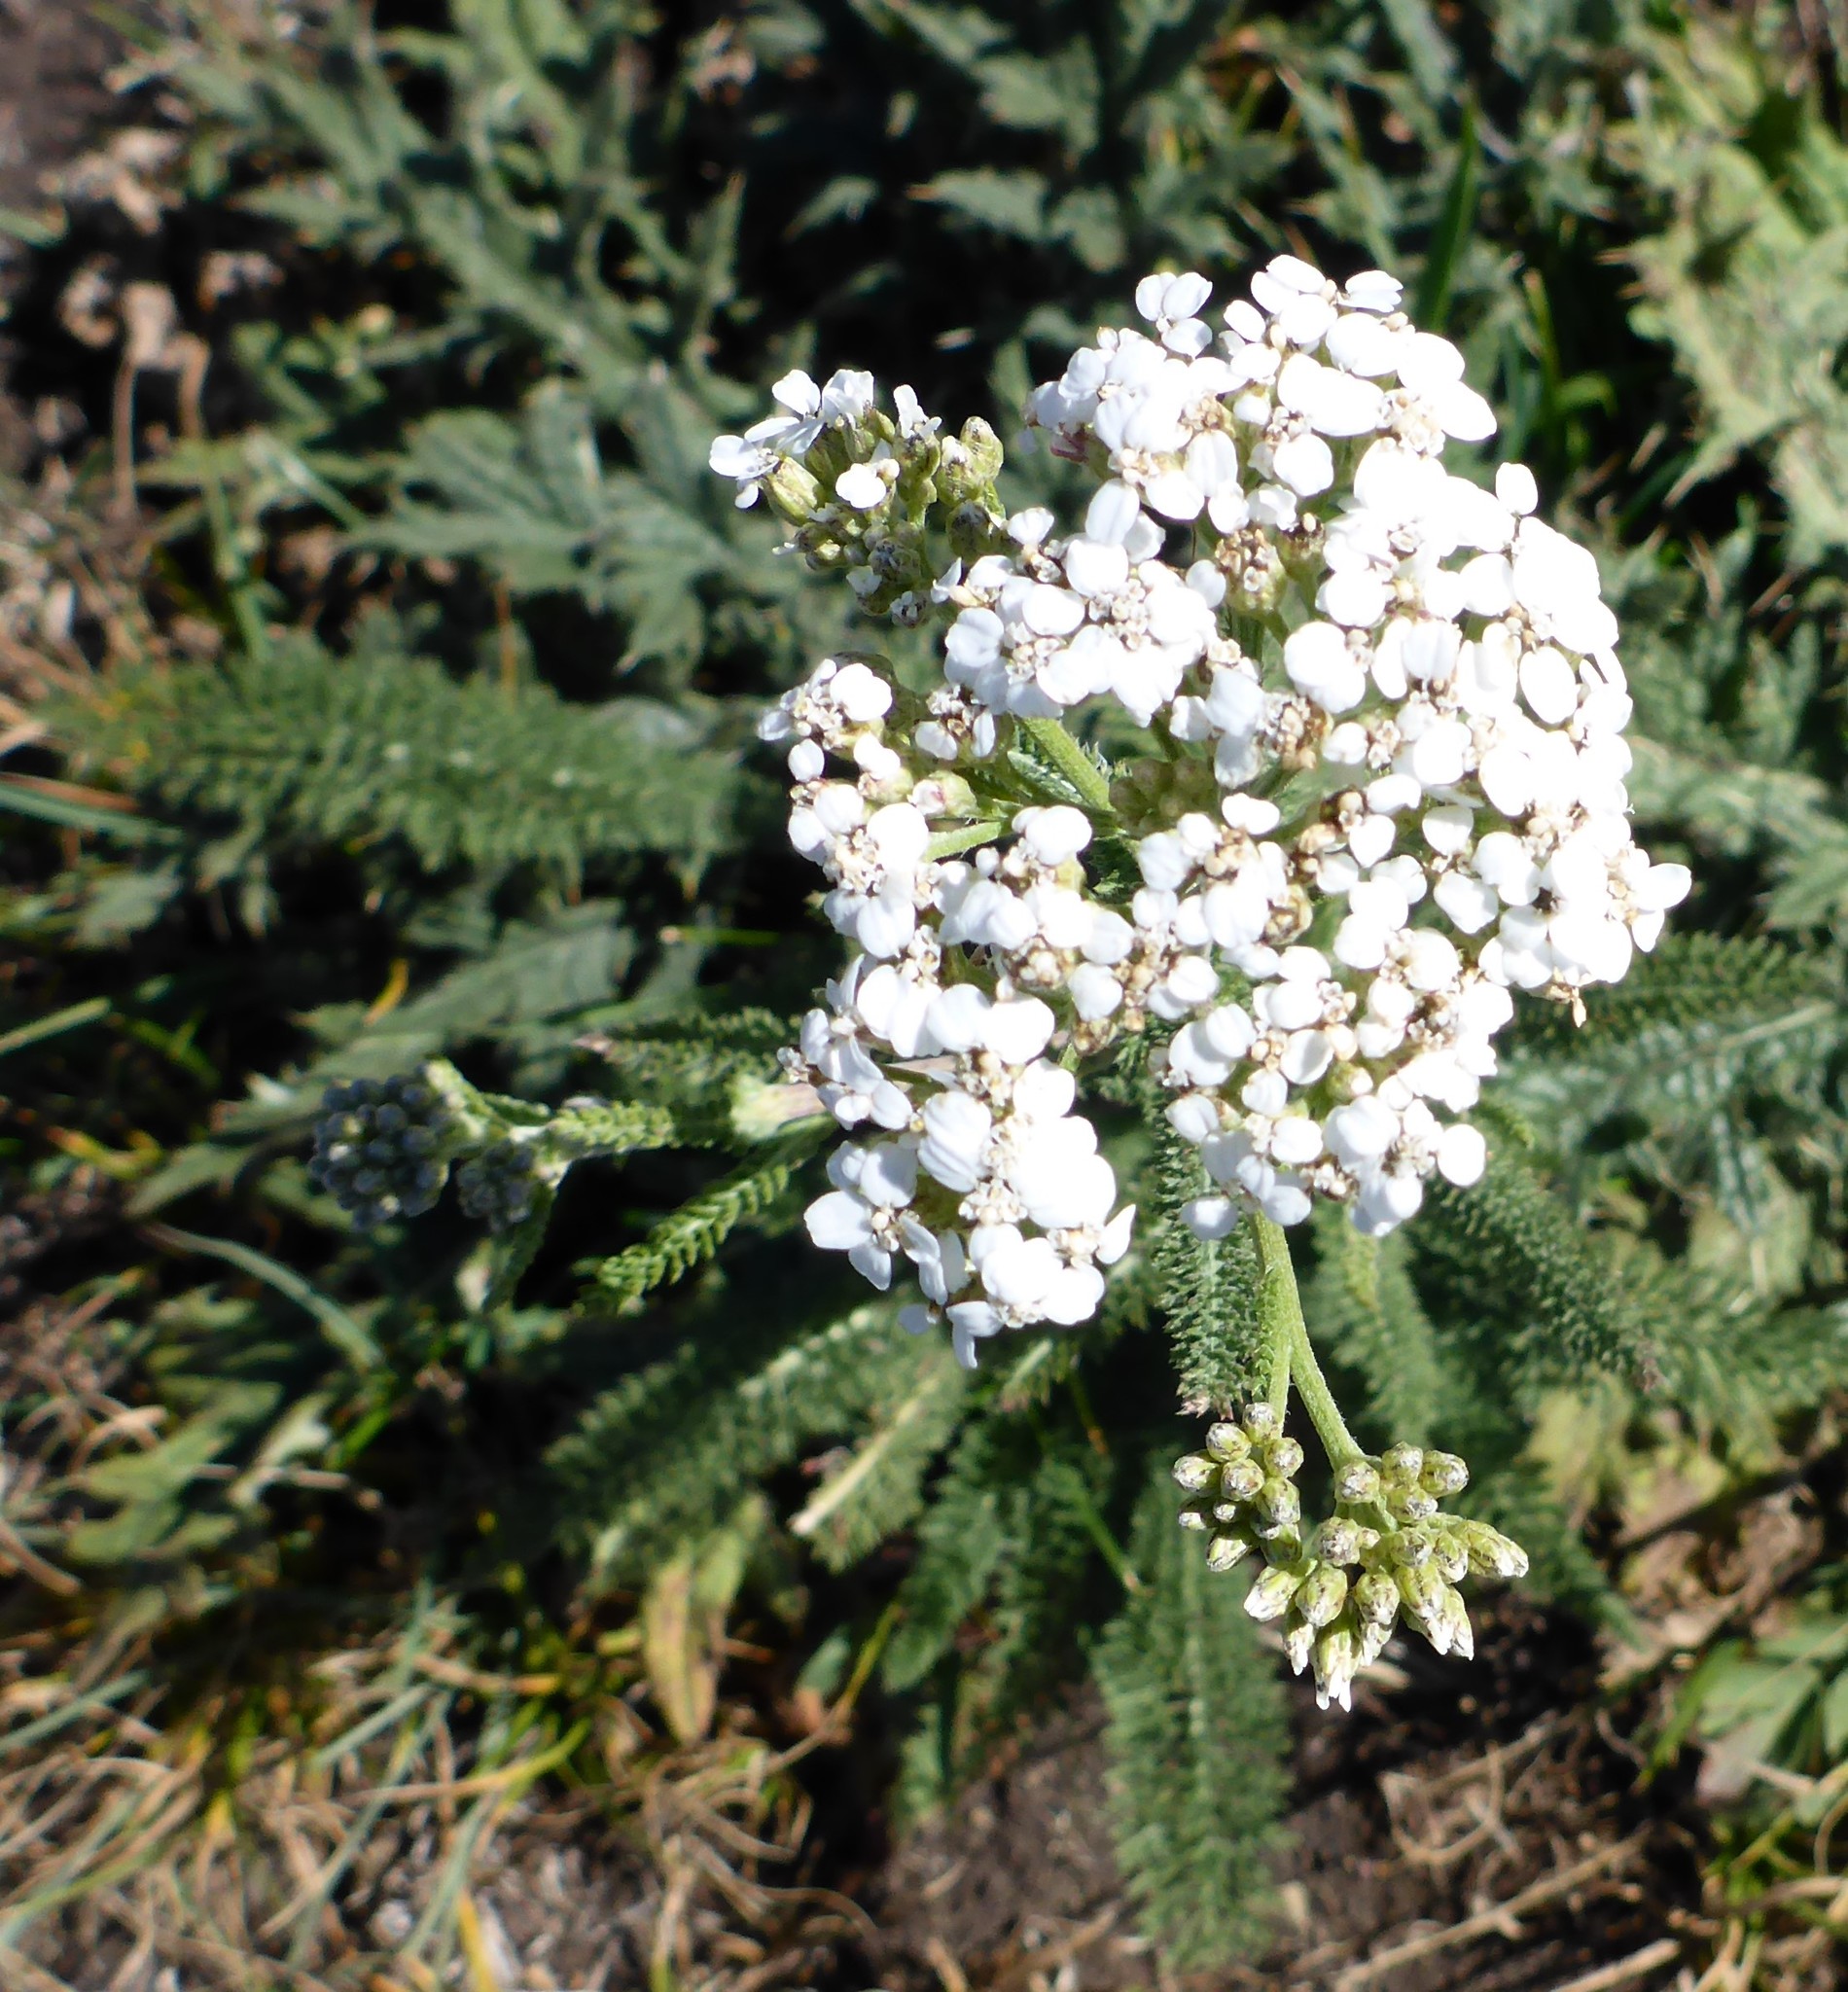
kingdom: Plantae
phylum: Tracheophyta
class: Magnoliopsida
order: Asterales
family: Asteraceae
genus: Achillea
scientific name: Achillea millefolium
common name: Yarrow
